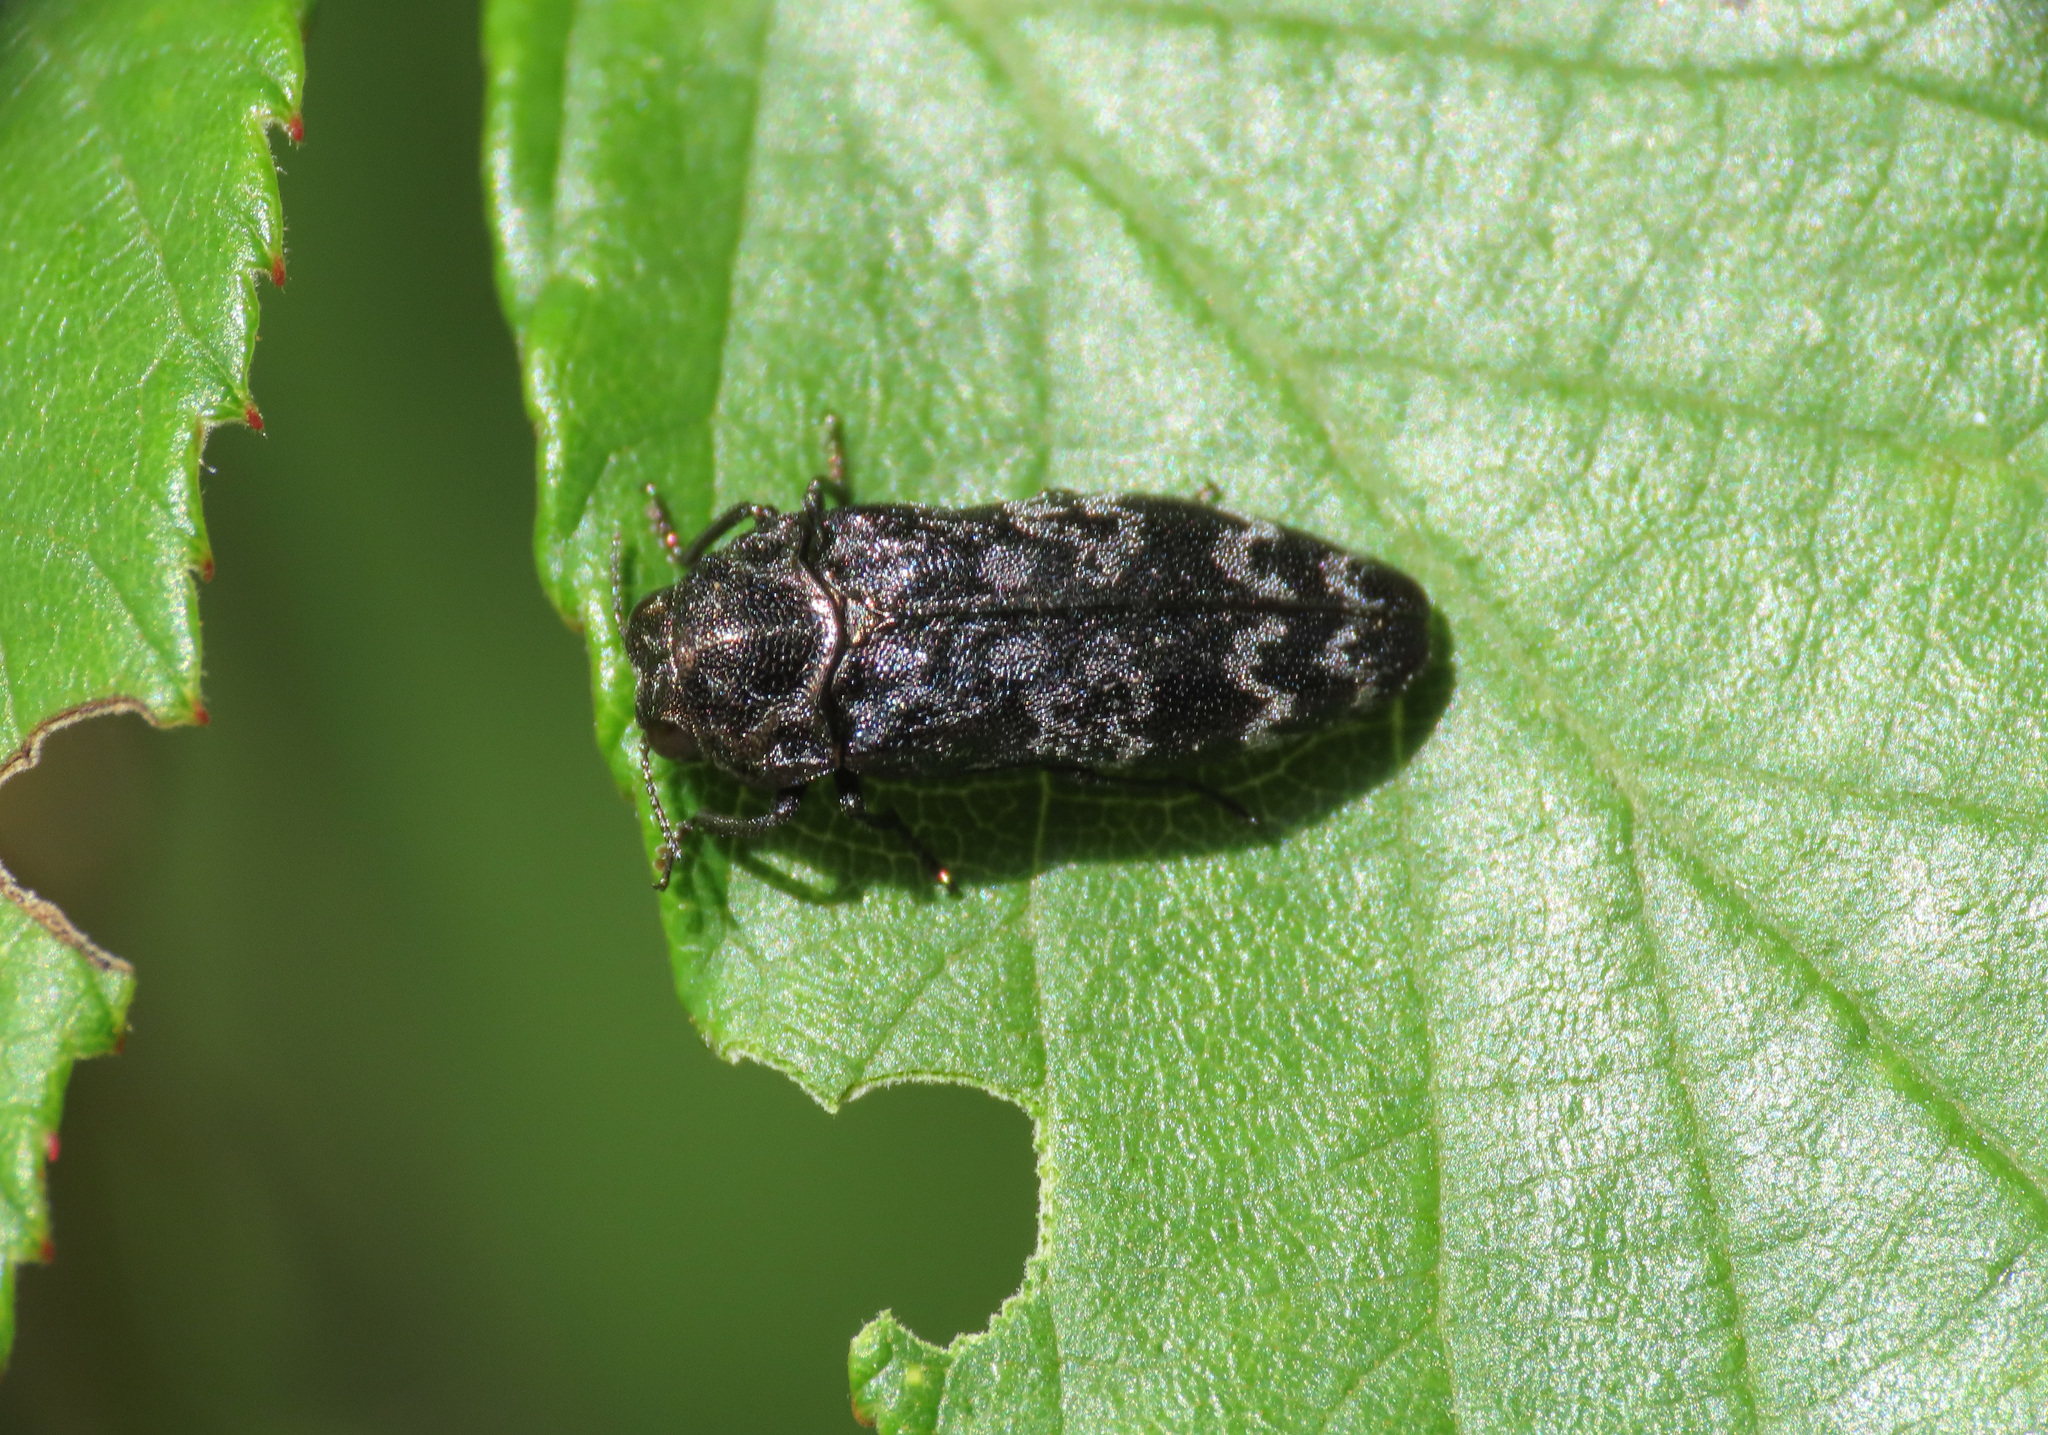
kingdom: Animalia
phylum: Arthropoda
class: Insecta
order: Coleoptera
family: Buprestidae
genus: Coraebus
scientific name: Coraebus rubi
